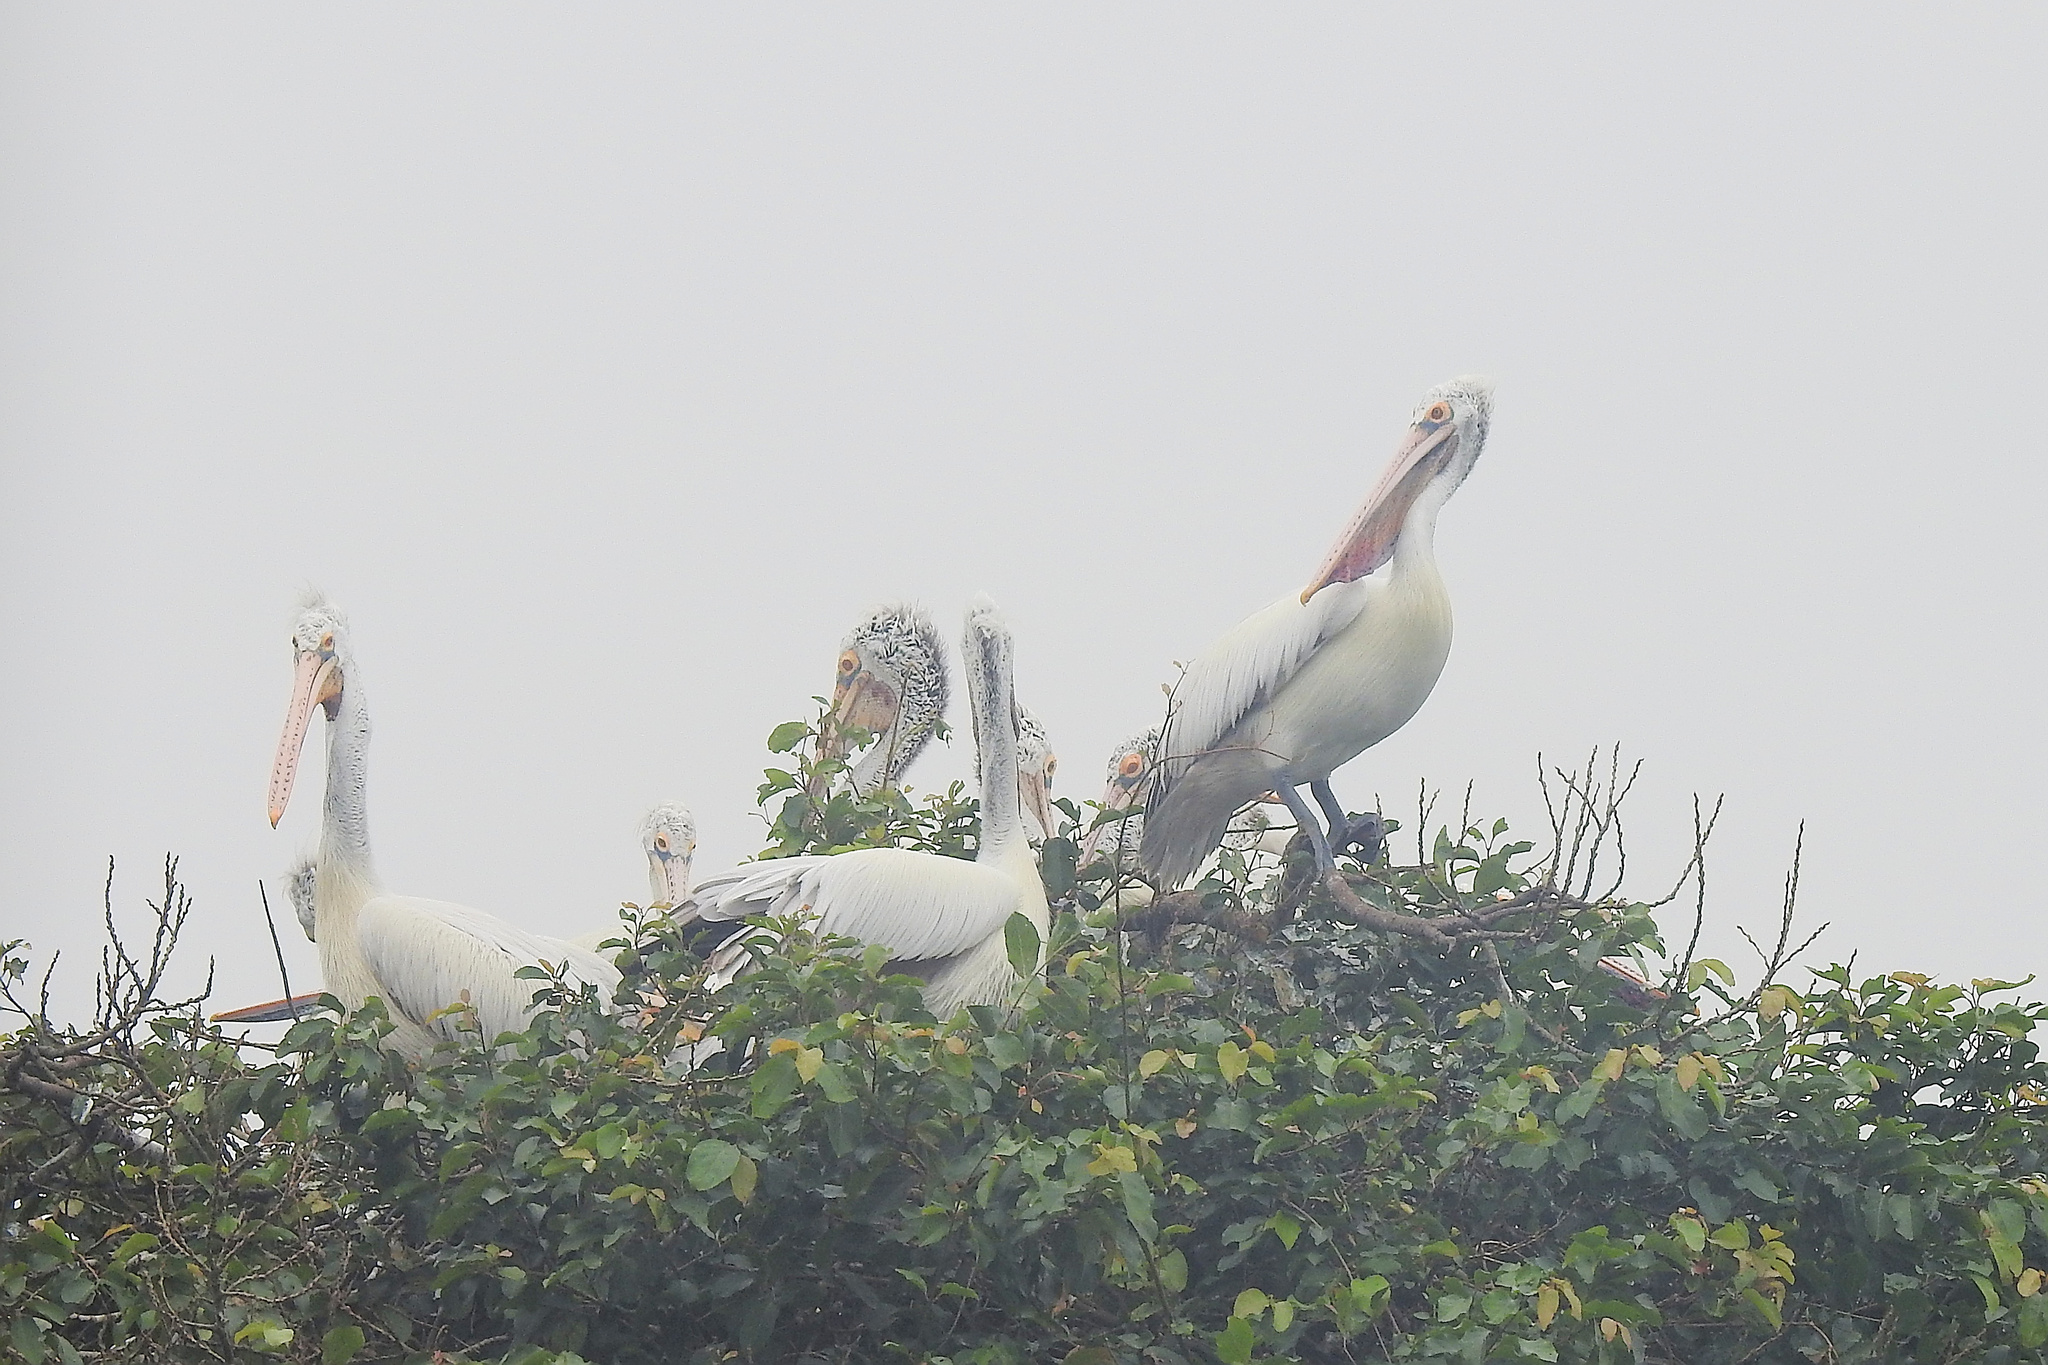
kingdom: Animalia
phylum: Chordata
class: Aves
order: Pelecaniformes
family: Pelecanidae
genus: Pelecanus
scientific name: Pelecanus philippensis
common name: Spot-billed pelican
